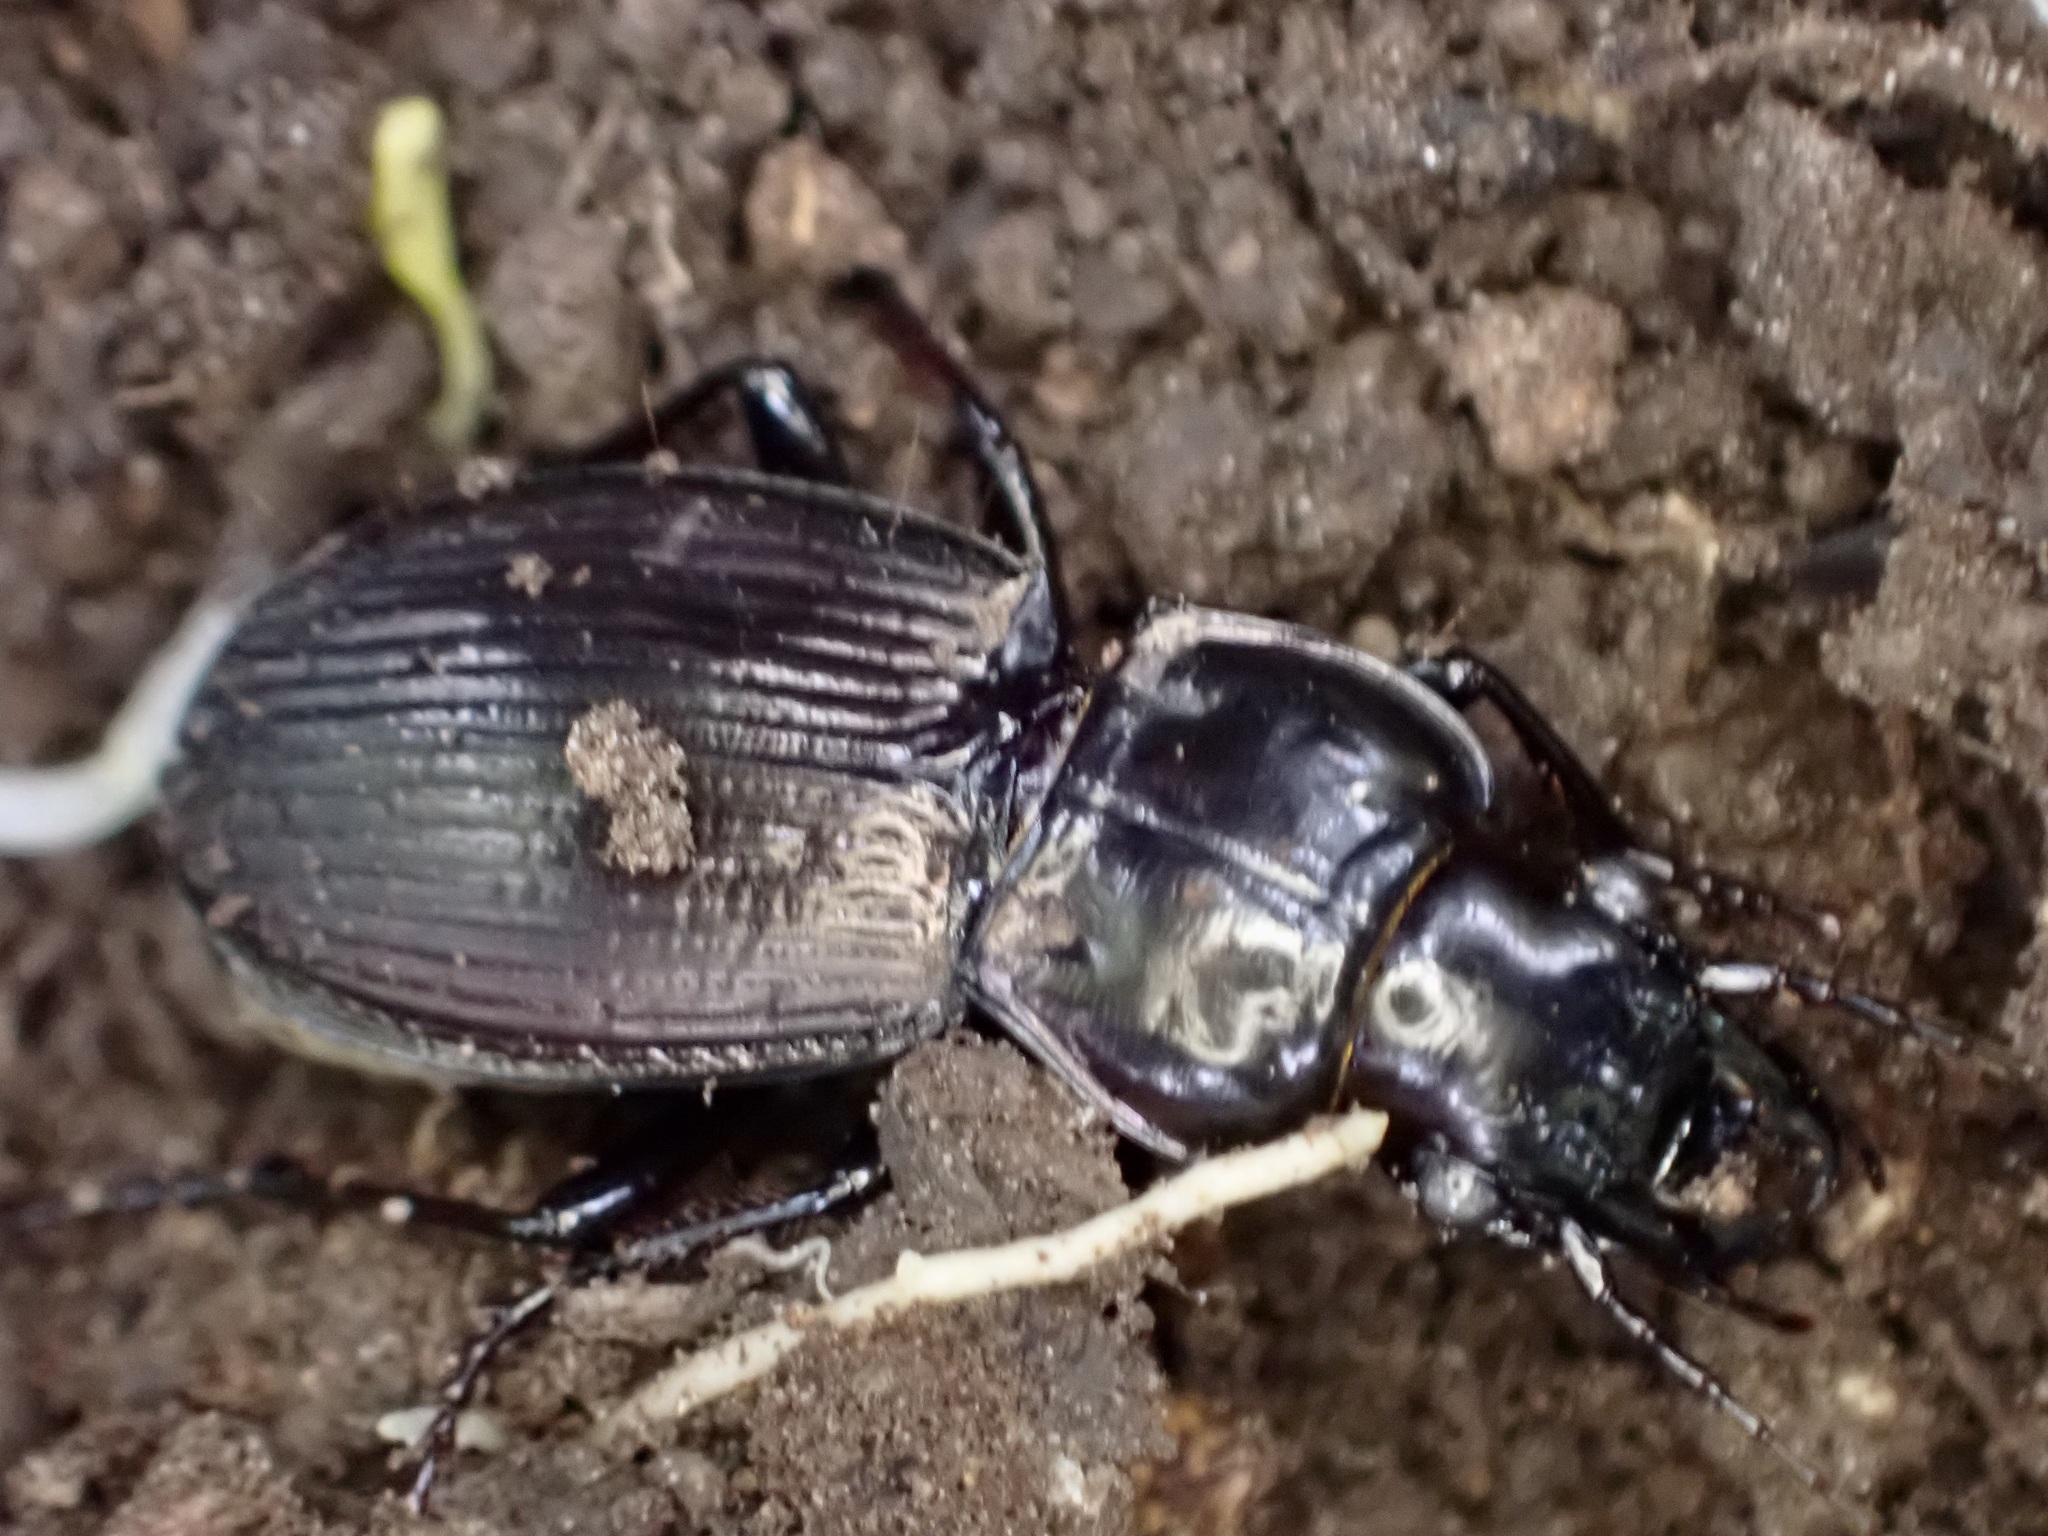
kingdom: Animalia
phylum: Arthropoda
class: Insecta
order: Coleoptera
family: Carabidae
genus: Megadromus
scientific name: Megadromus guerinii
